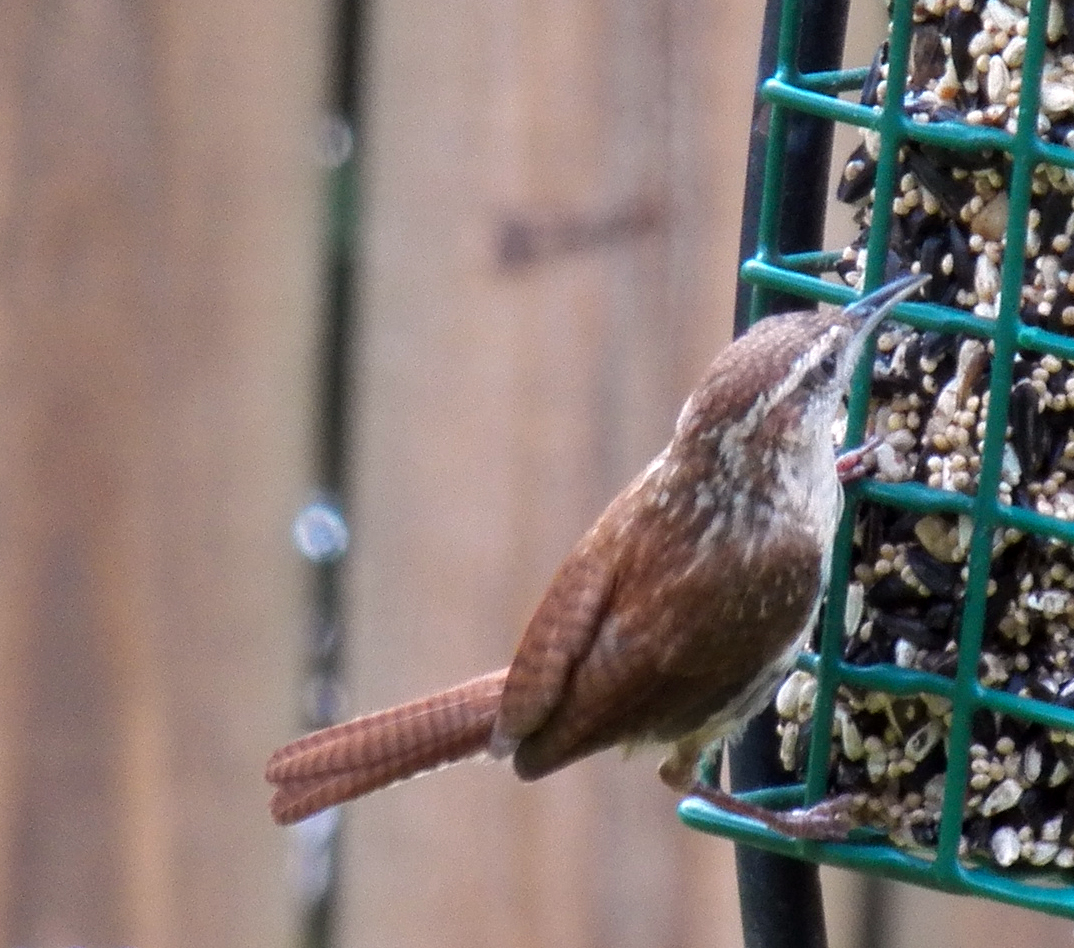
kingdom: Animalia
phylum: Chordata
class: Aves
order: Passeriformes
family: Troglodytidae
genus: Thryothorus
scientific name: Thryothorus ludovicianus
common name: Carolina wren
